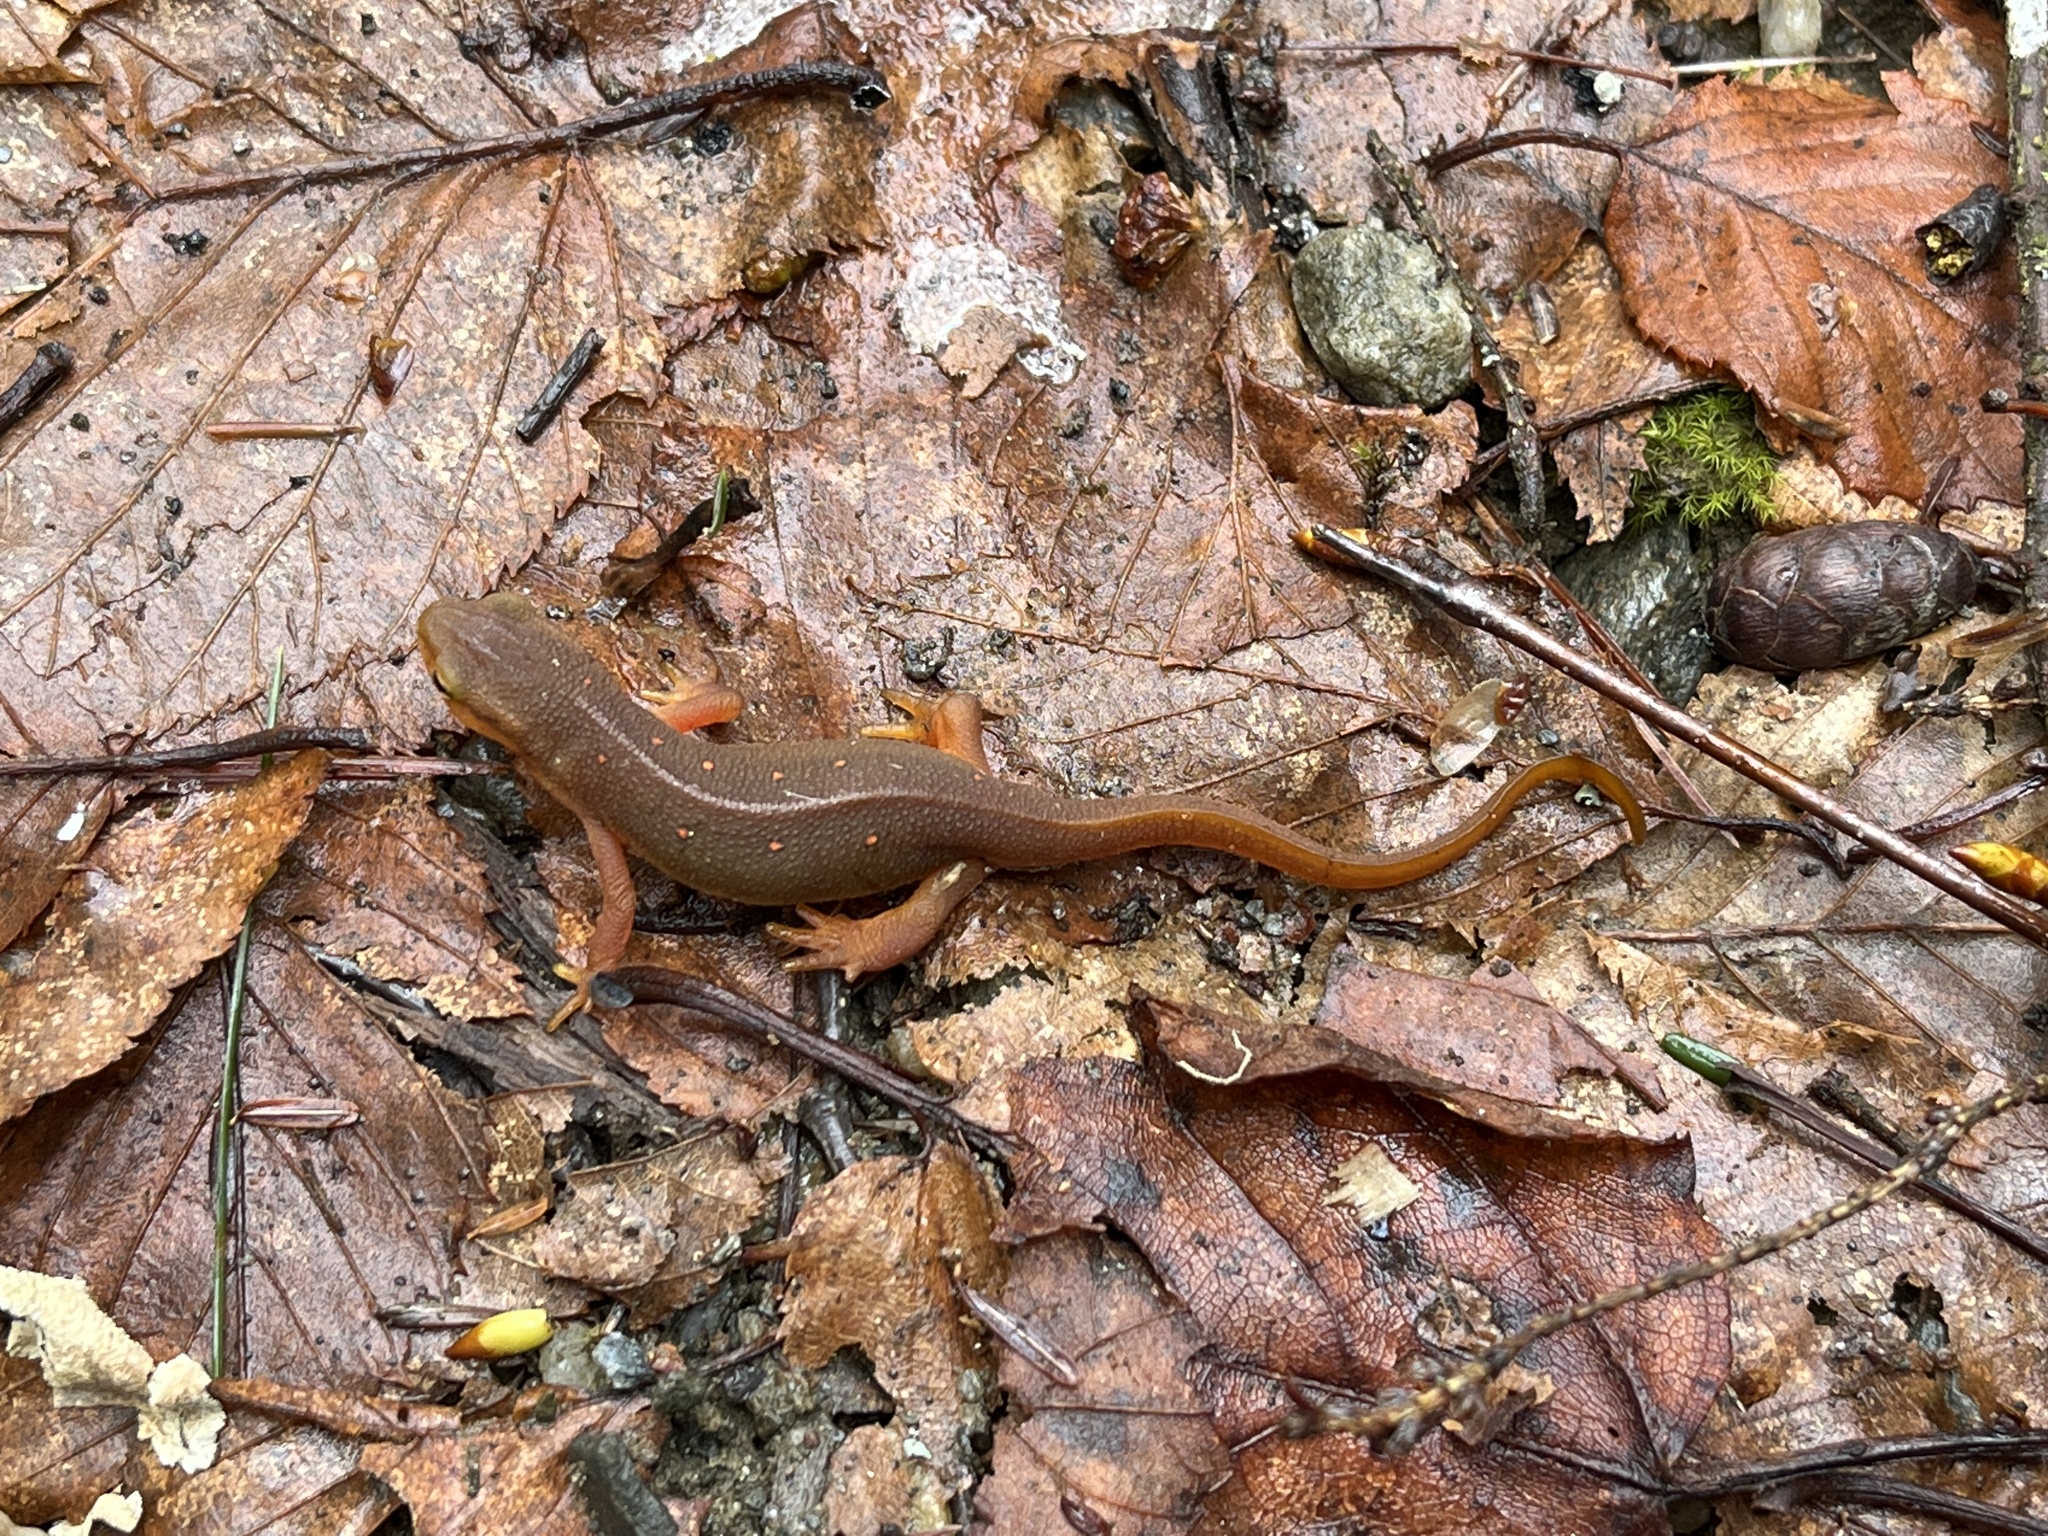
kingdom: Animalia
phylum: Chordata
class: Amphibia
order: Caudata
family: Salamandridae
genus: Notophthalmus
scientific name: Notophthalmus viridescens
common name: Eastern newt
